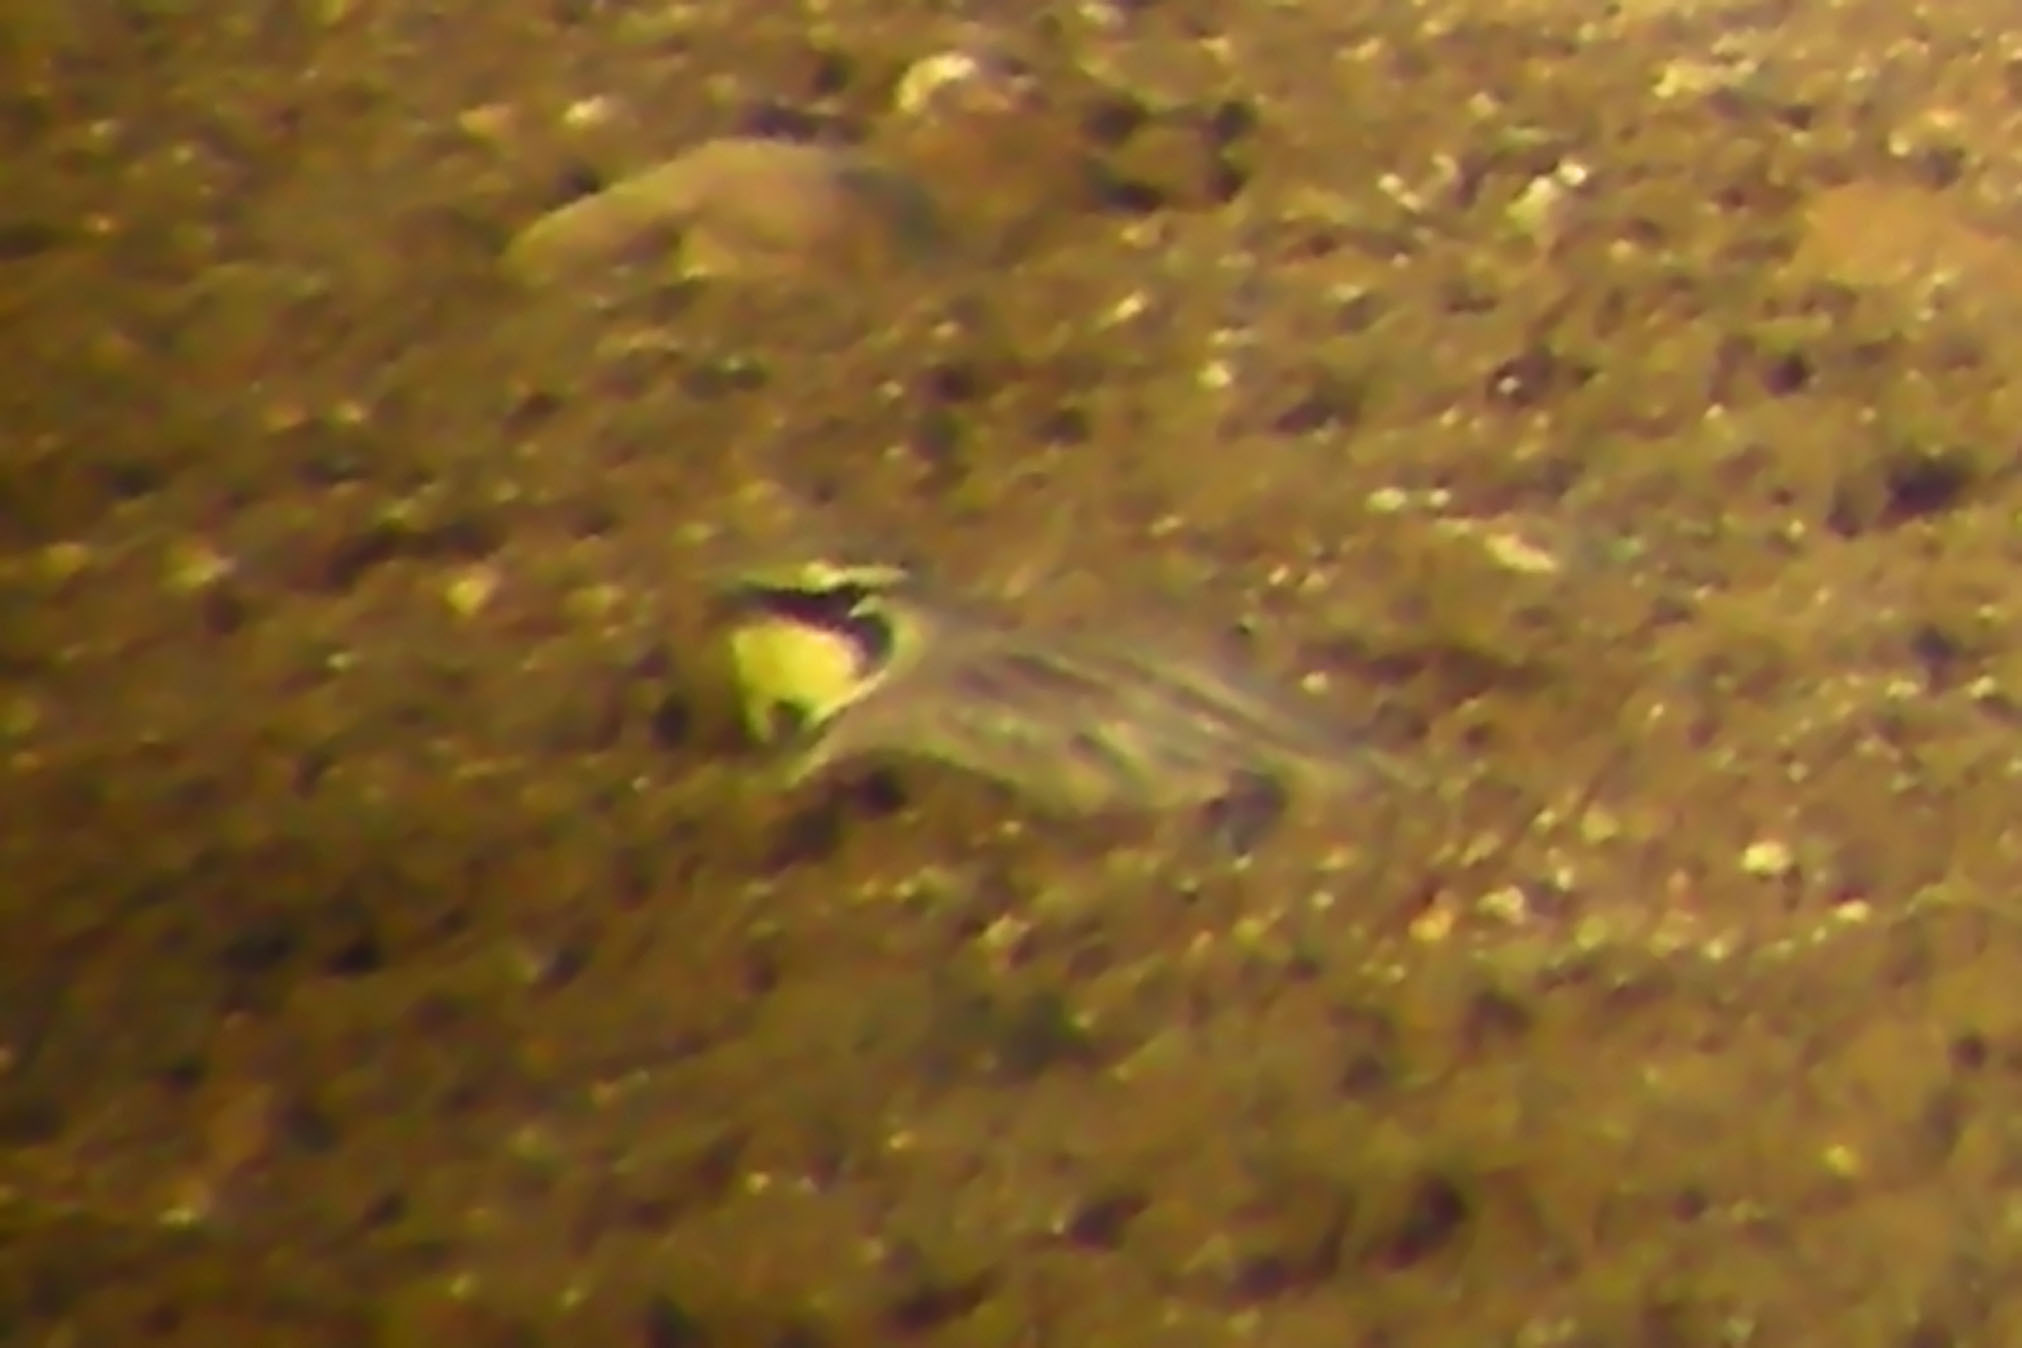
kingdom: Animalia
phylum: Chordata
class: Aves
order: Passeriformes
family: Alaudidae
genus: Eremophila
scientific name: Eremophila alpestris
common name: Horned lark
